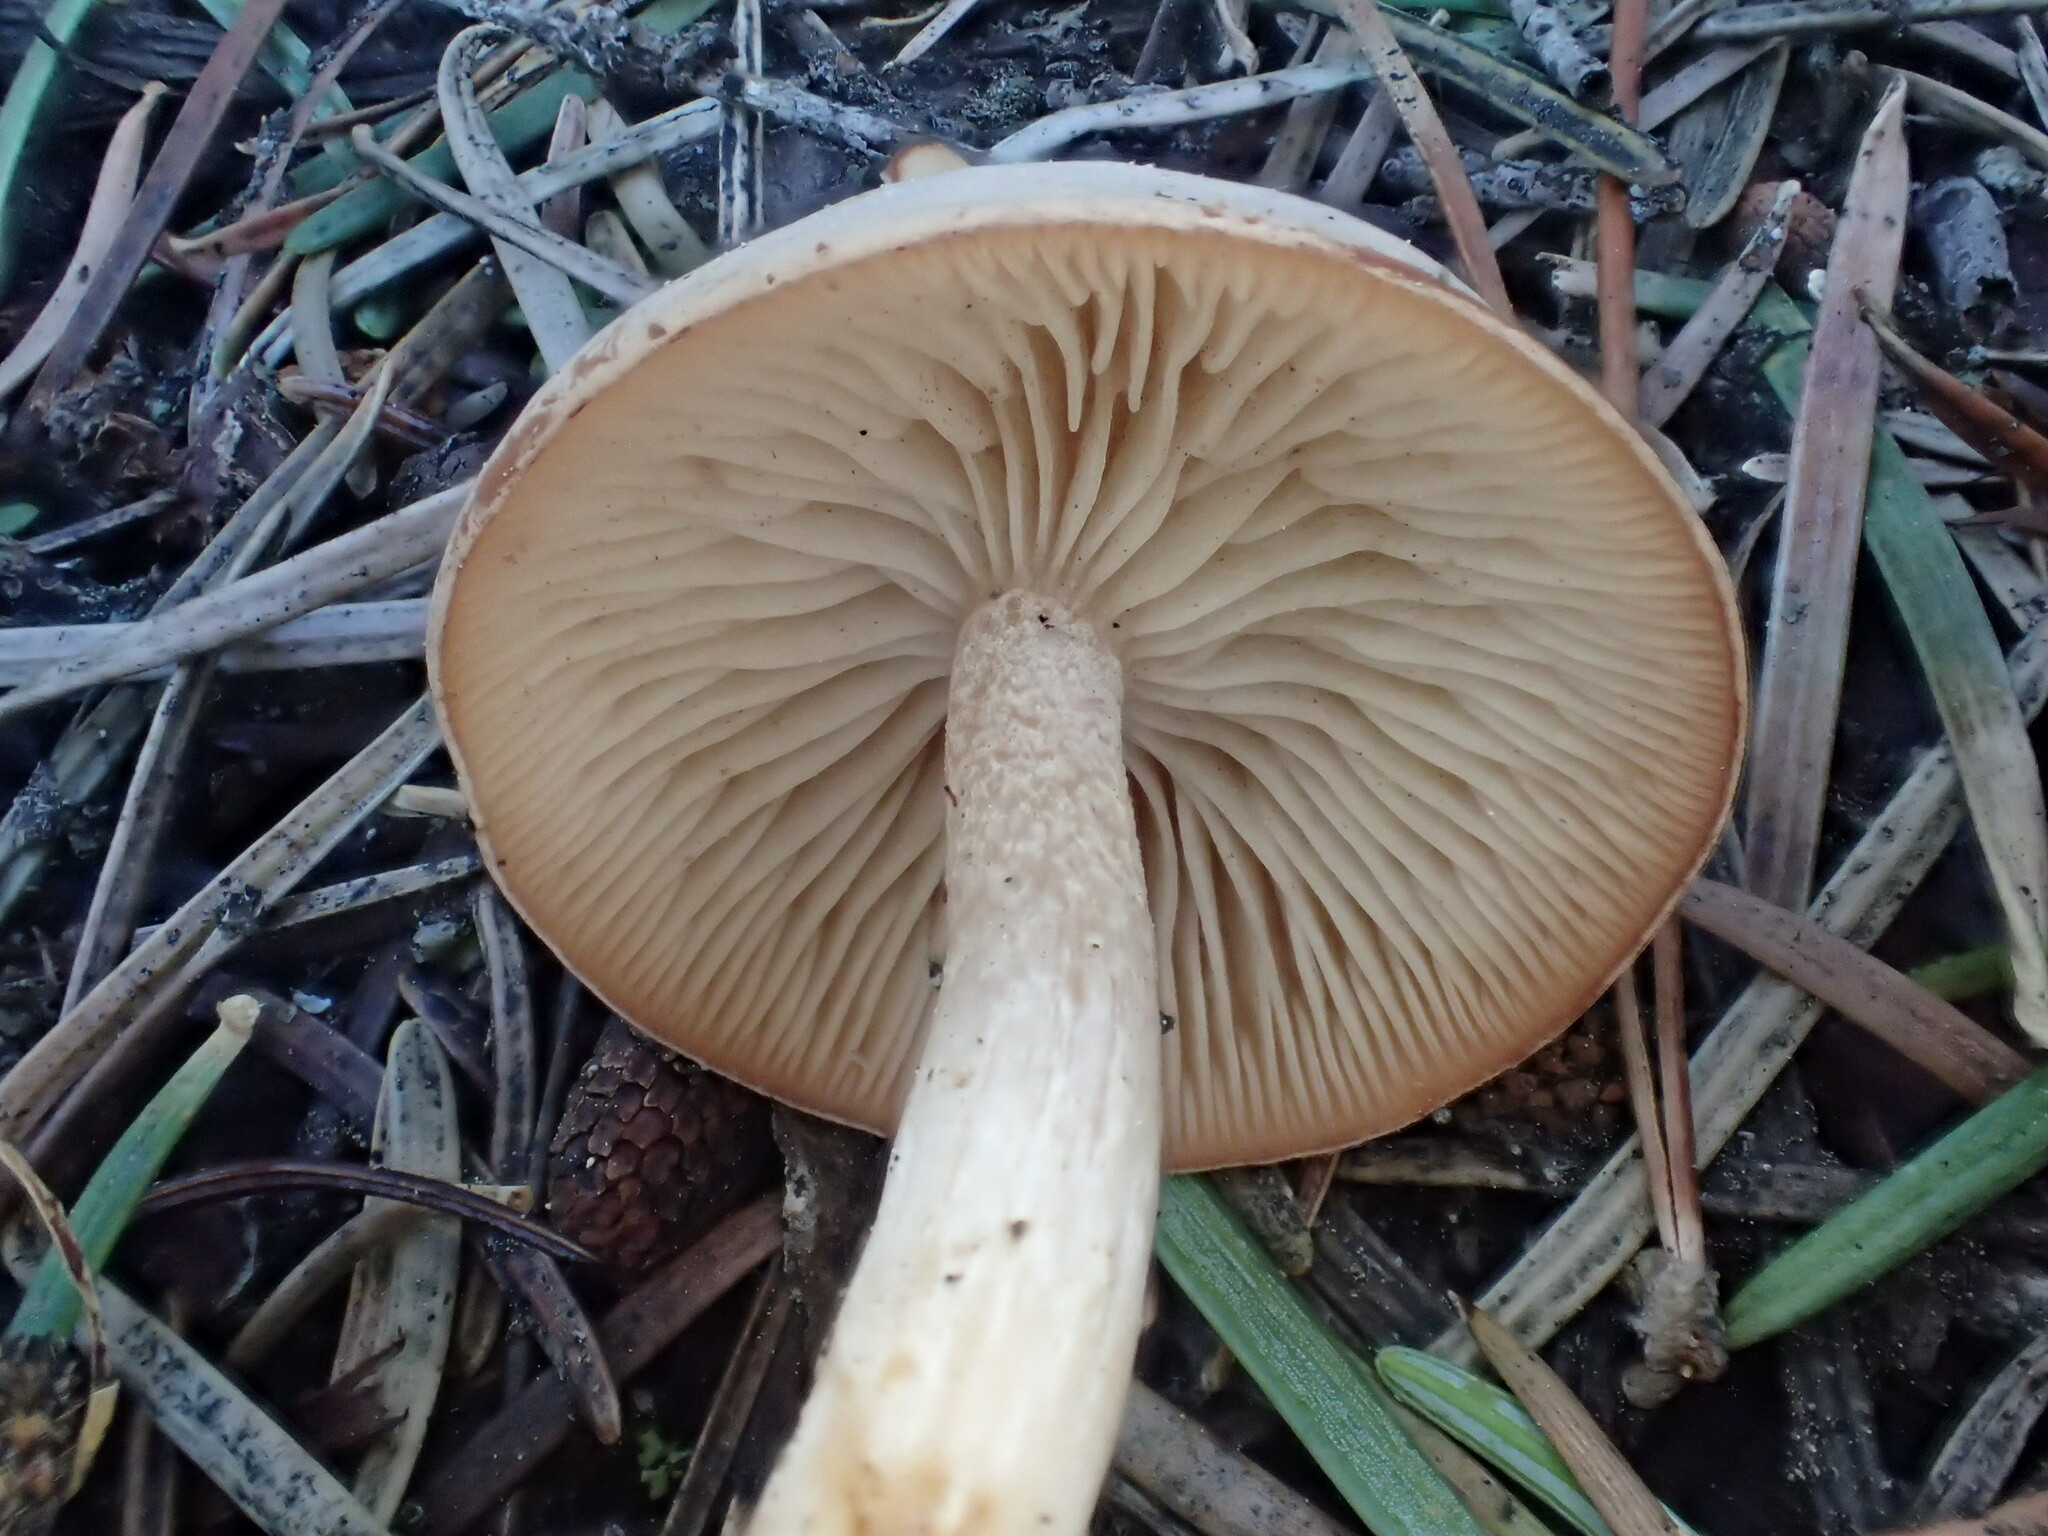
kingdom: Fungi
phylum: Basidiomycota
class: Agaricomycetes
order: Agaricales
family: Tricholomataceae
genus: Clitocybe
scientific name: Clitocybe albirhiza
